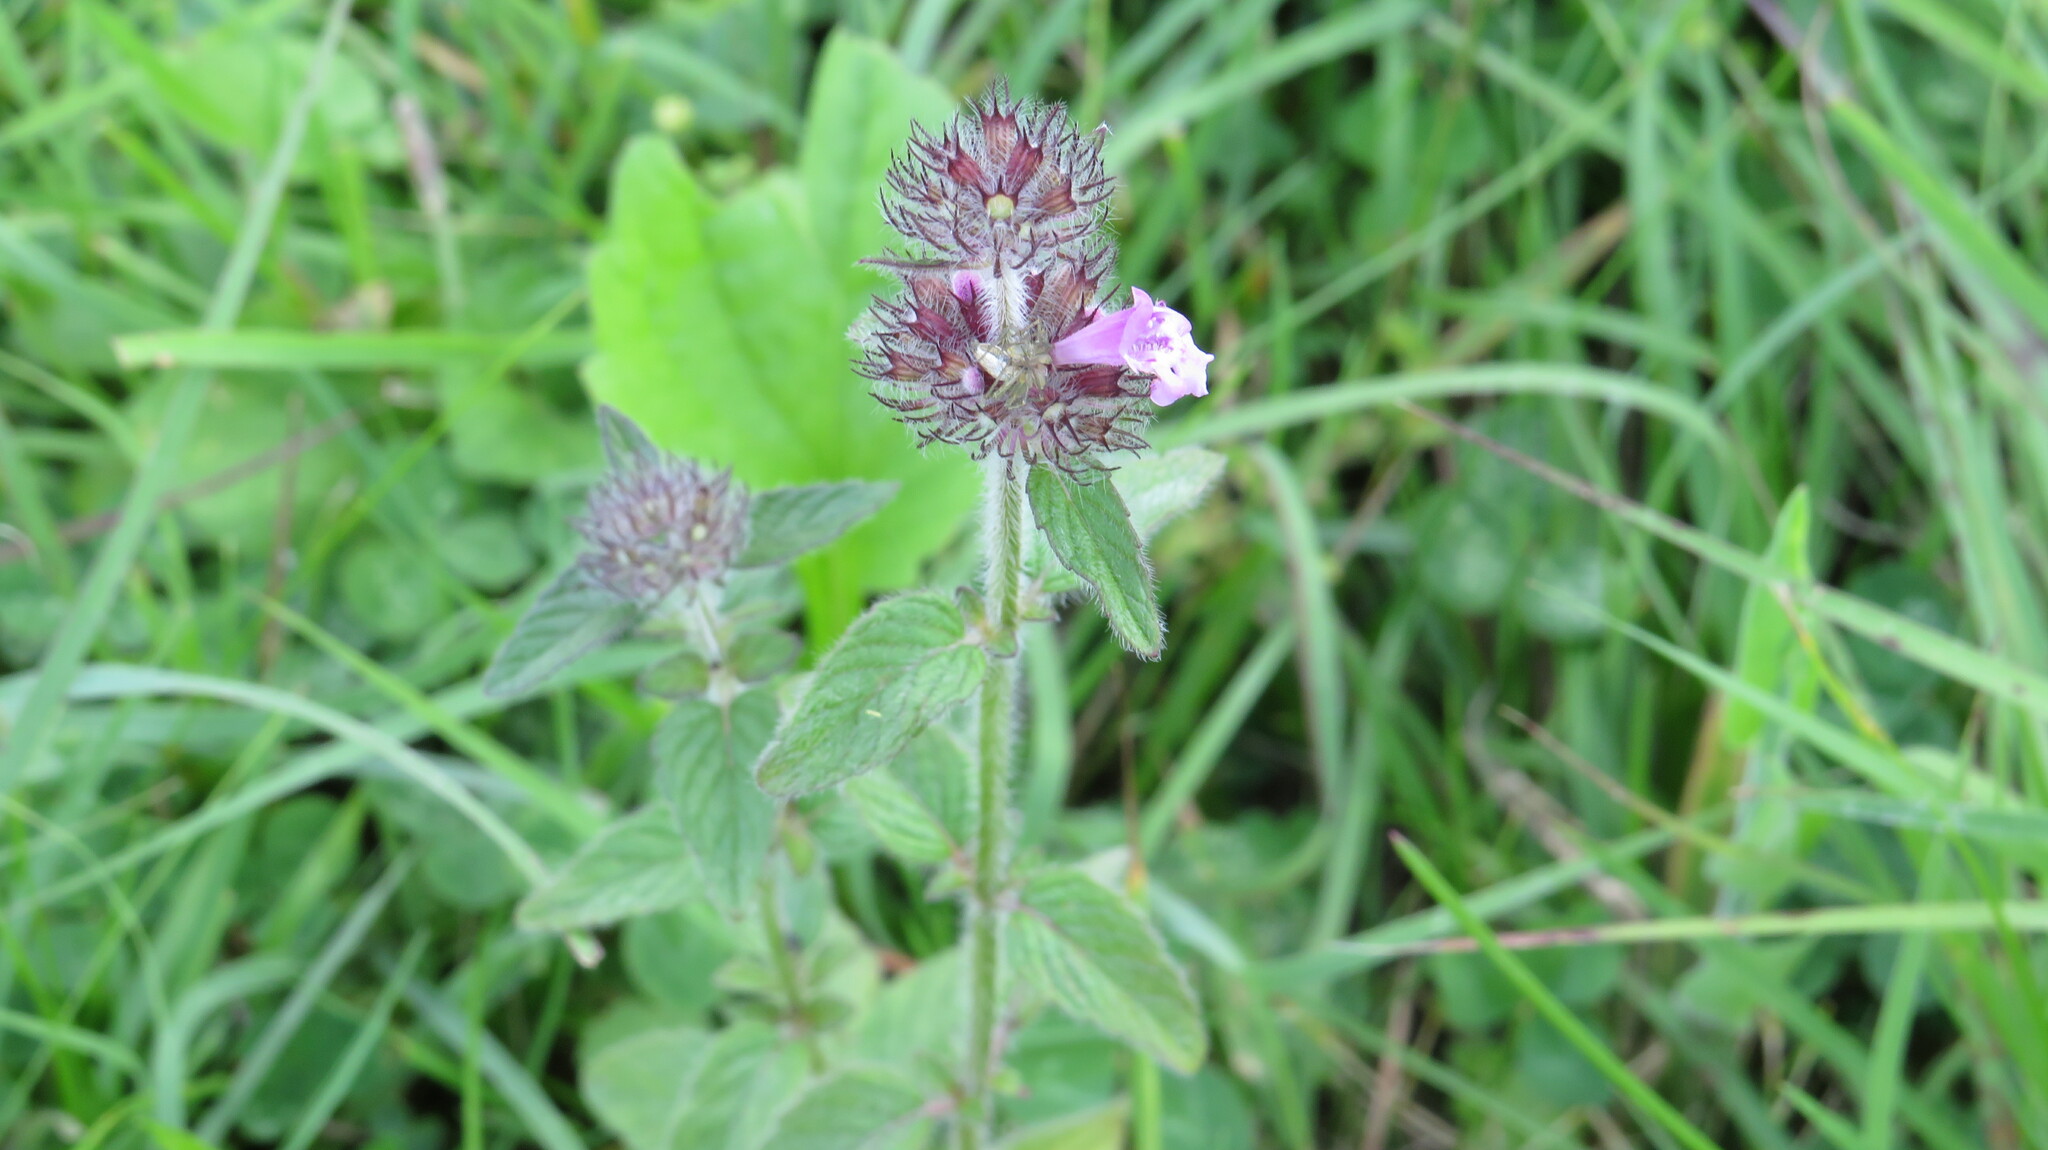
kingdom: Plantae
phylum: Tracheophyta
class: Magnoliopsida
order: Lamiales
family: Lamiaceae
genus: Clinopodium
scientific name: Clinopodium vulgare
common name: Wild basil
